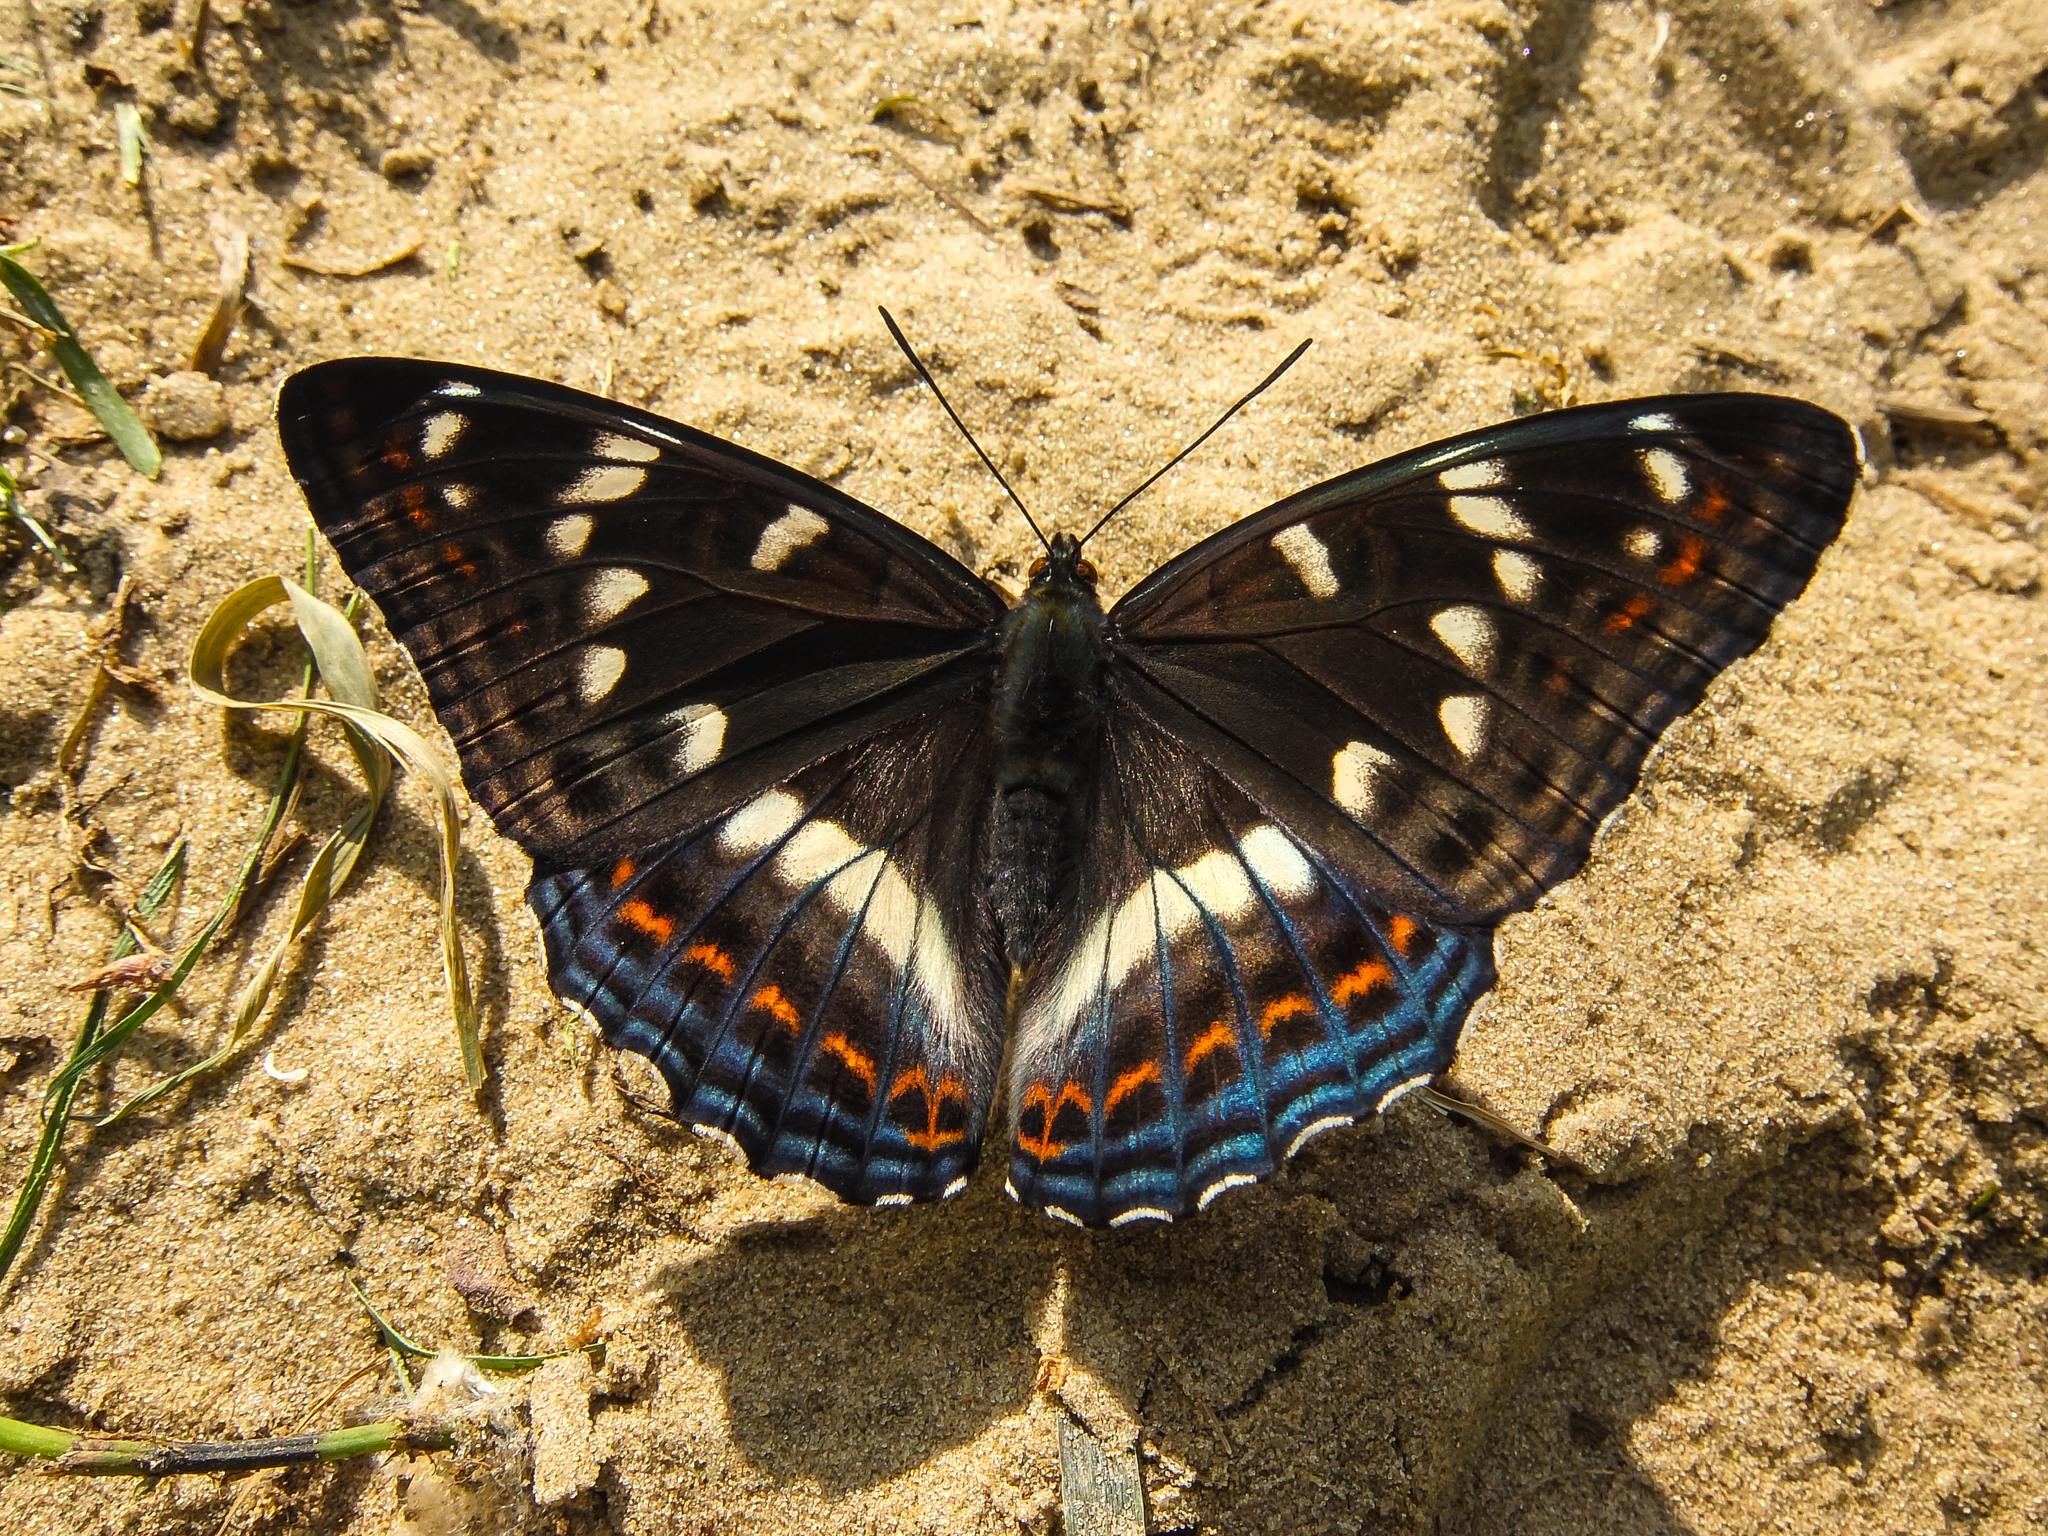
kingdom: Animalia
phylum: Arthropoda
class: Insecta
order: Lepidoptera
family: Nymphalidae
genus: Limenitis
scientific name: Limenitis populi
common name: Poplar admiral
